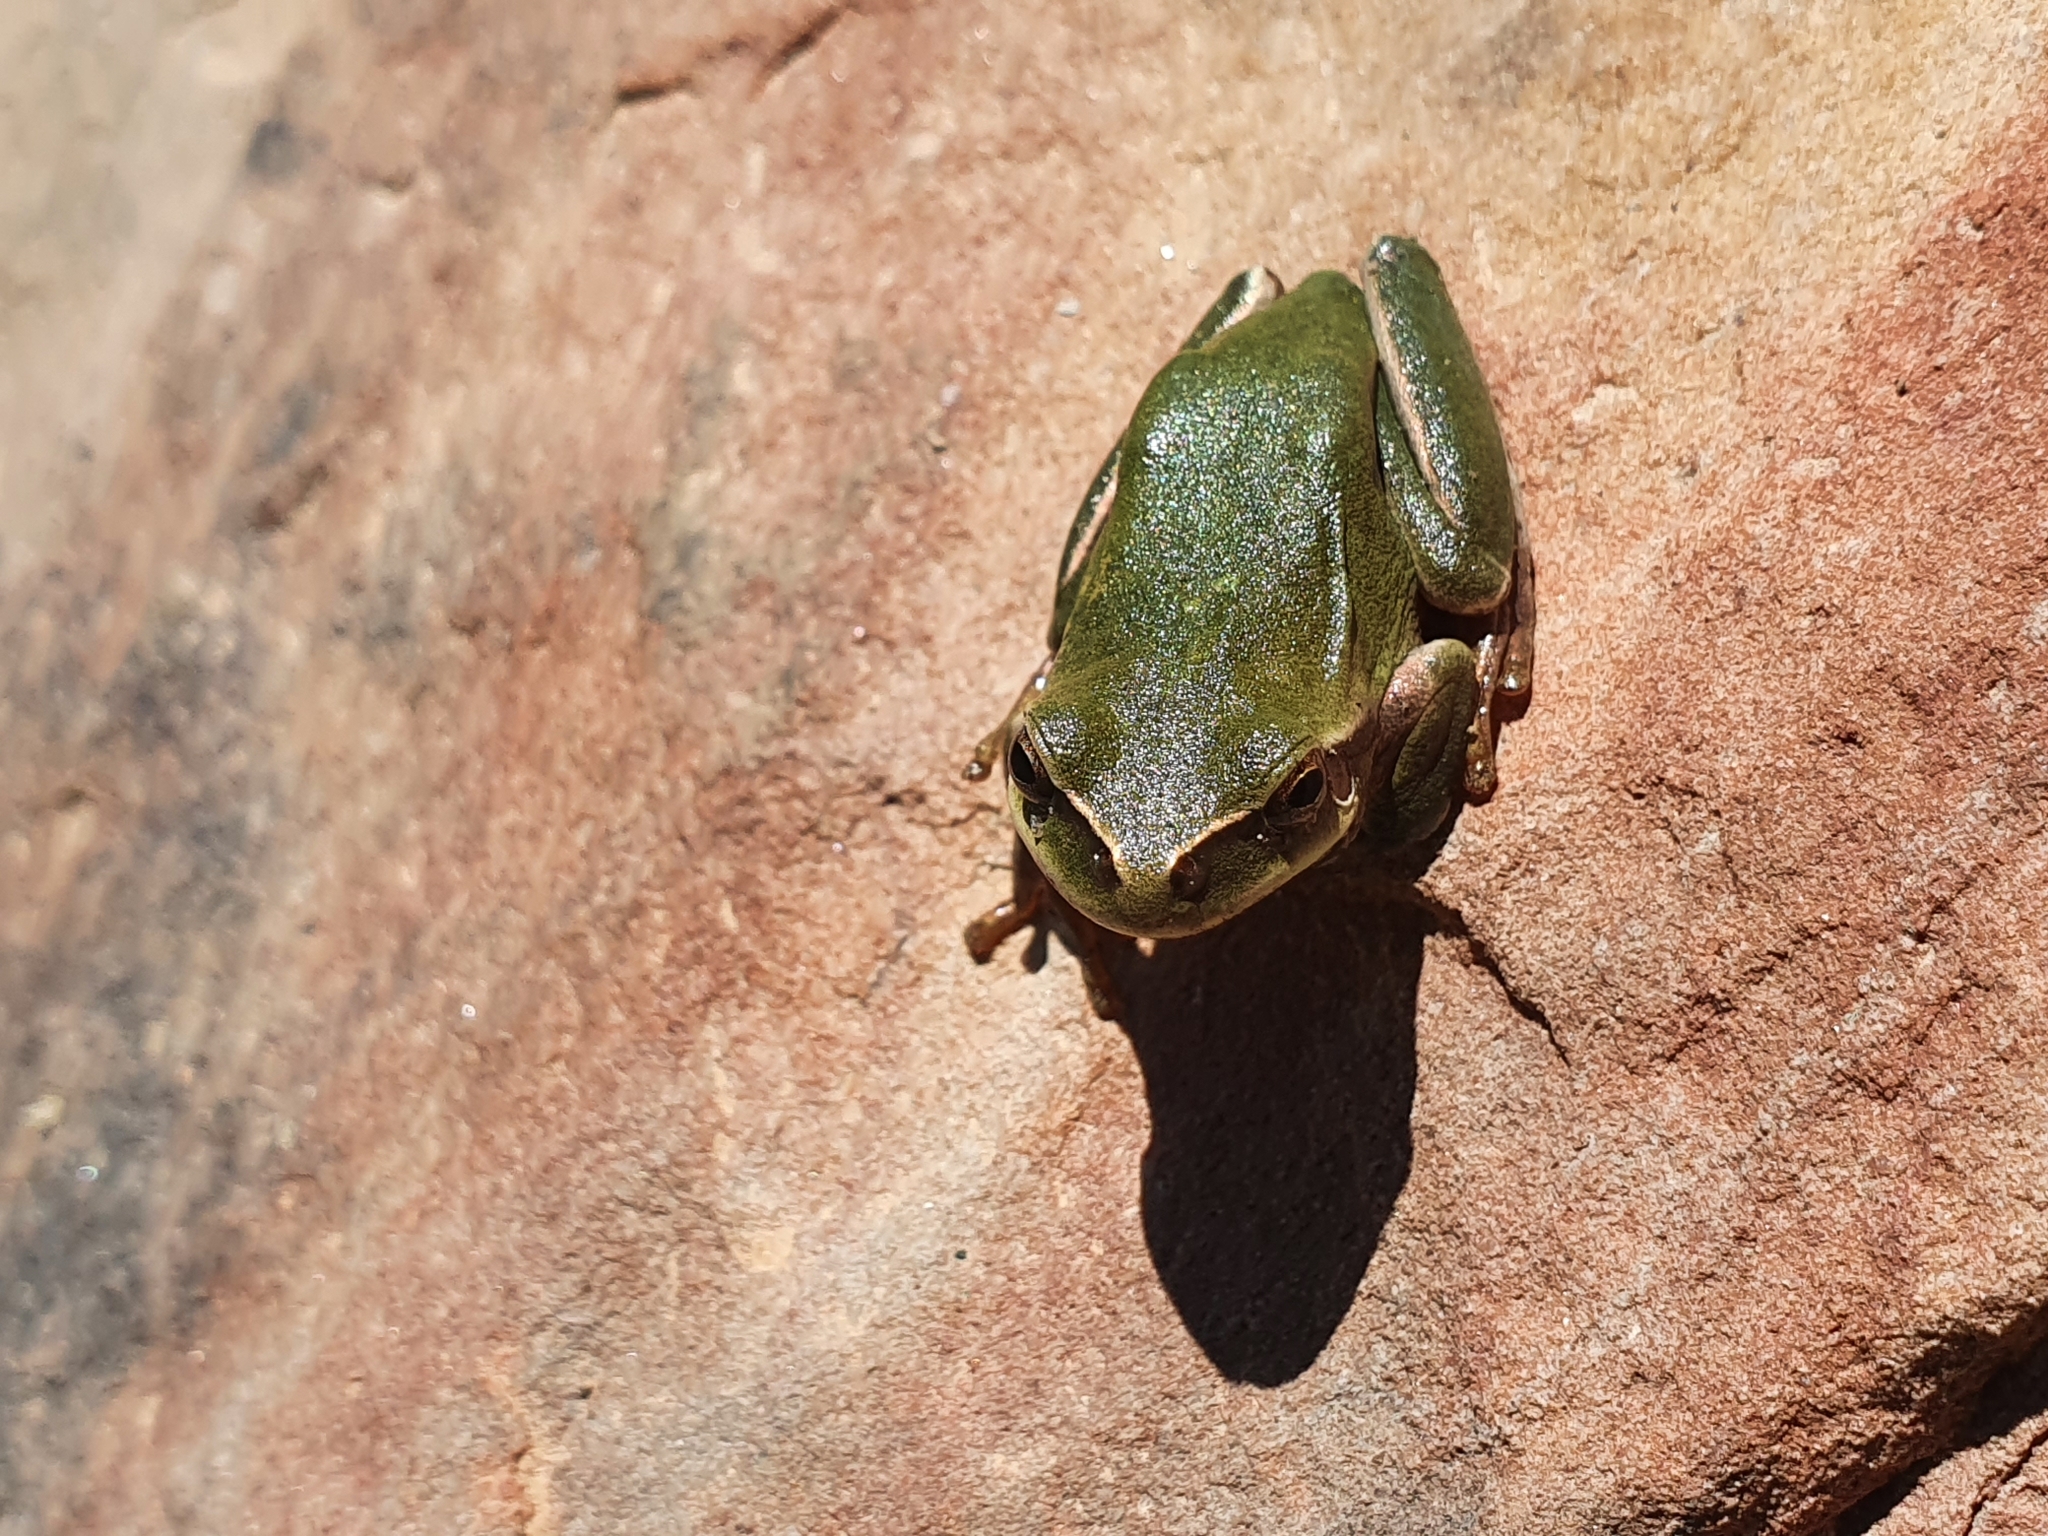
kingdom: Animalia
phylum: Chordata
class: Amphibia
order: Anura
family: Hylidae
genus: Hyla
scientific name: Hyla meridionalis
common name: Stripeless tree frog
